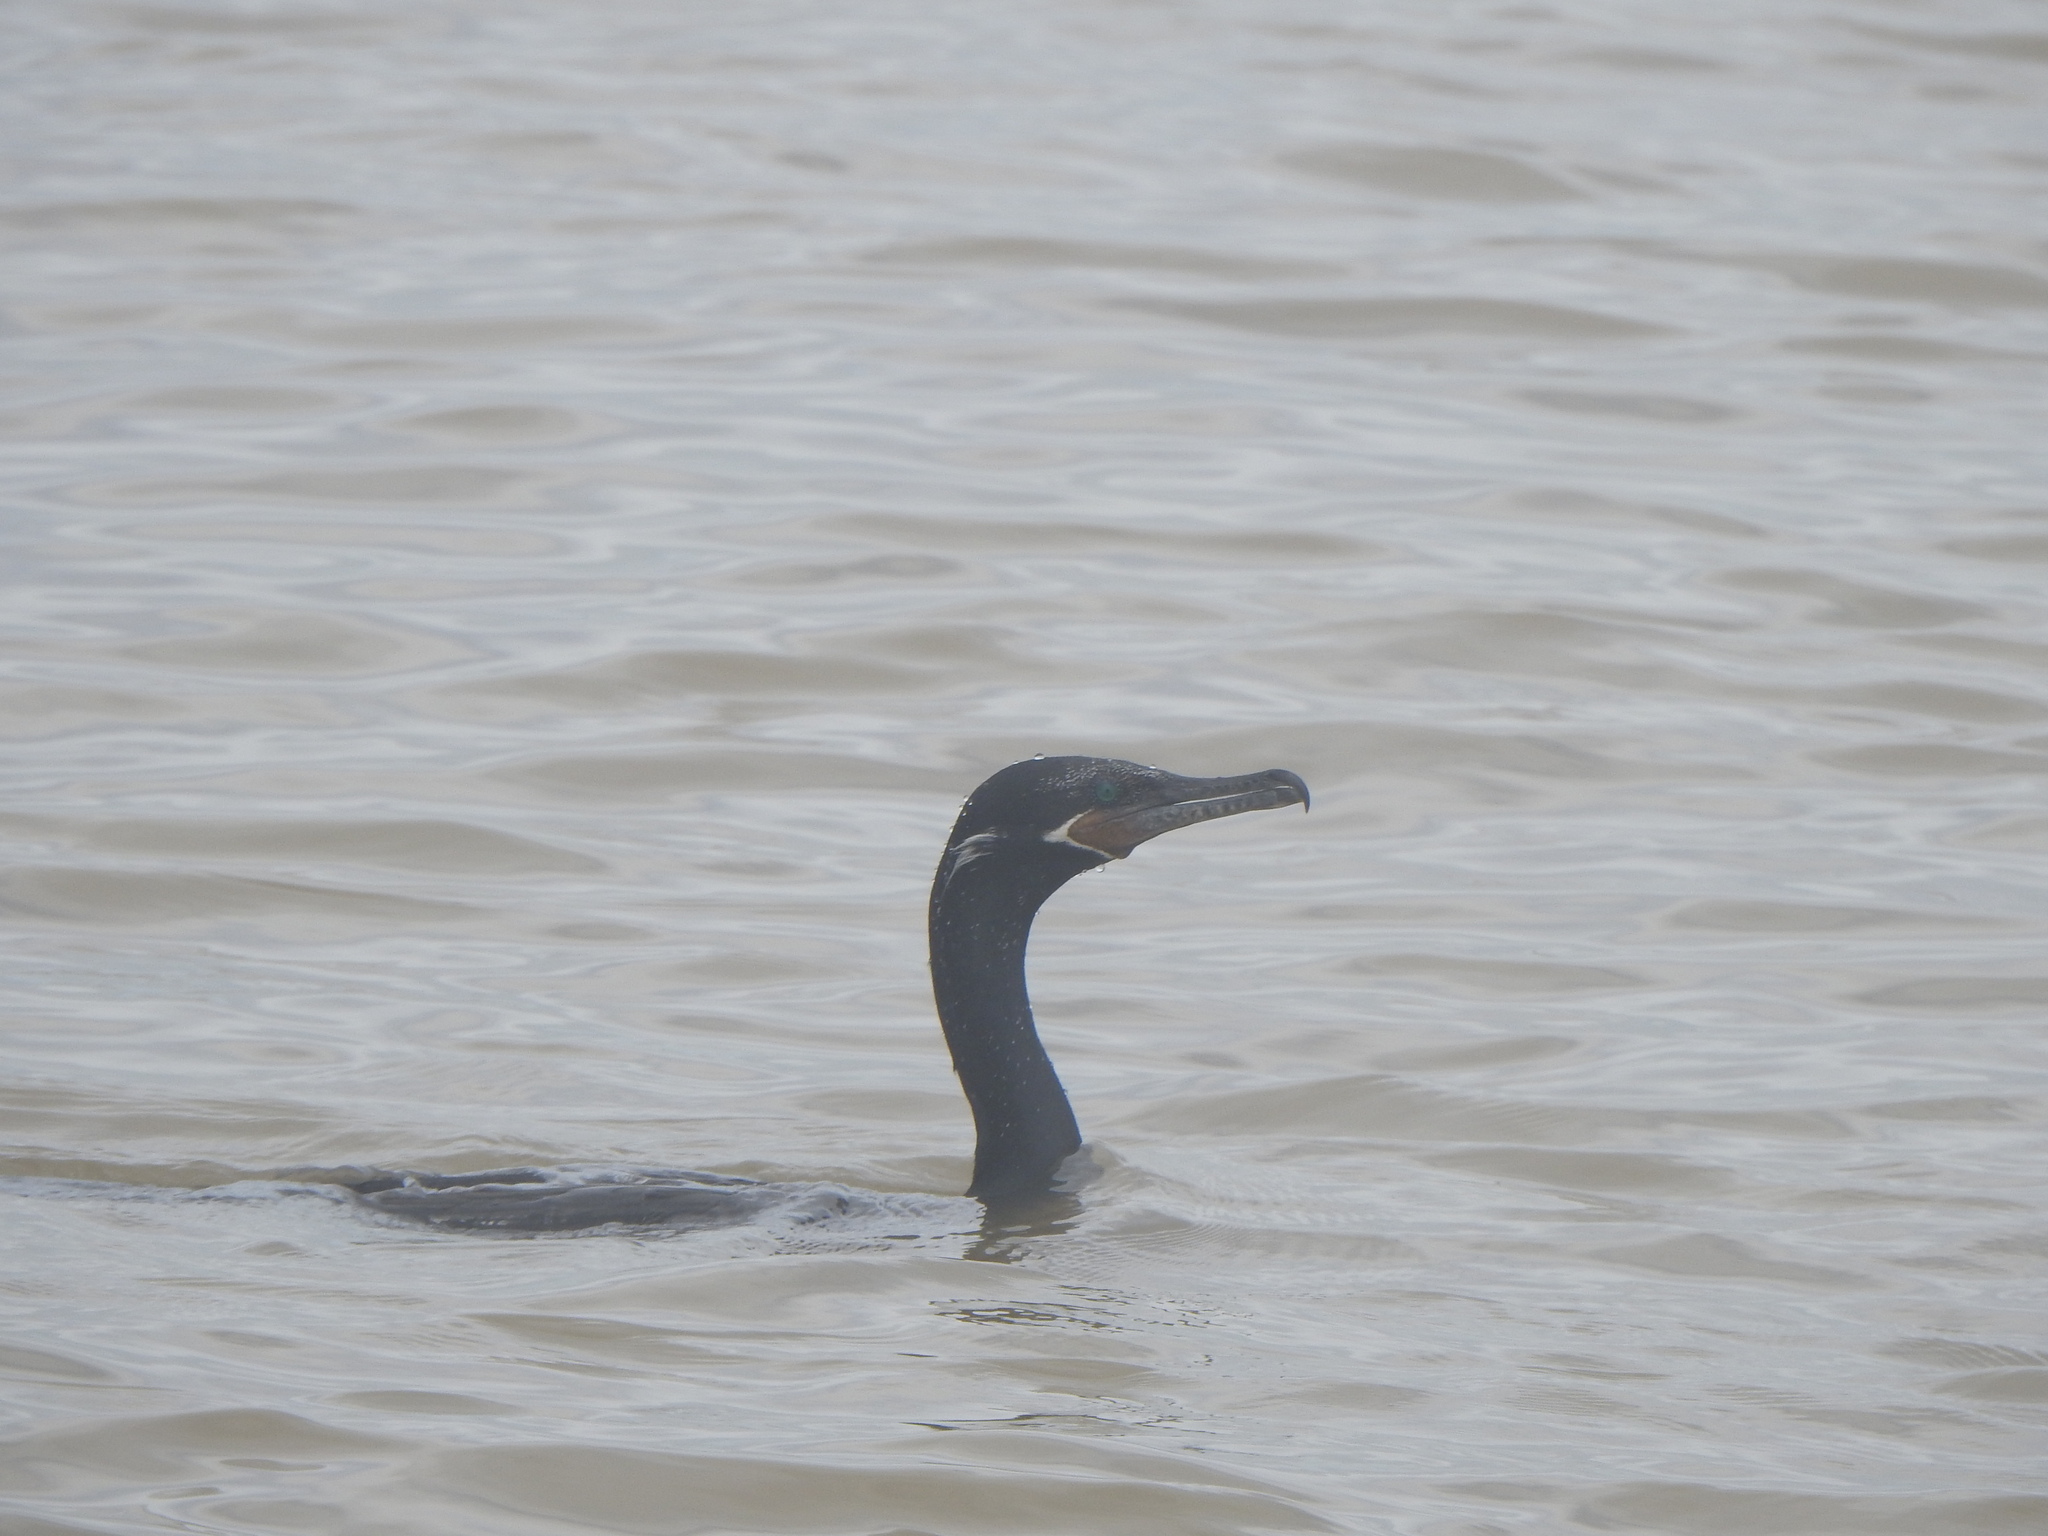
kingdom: Animalia
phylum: Chordata
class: Aves
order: Suliformes
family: Phalacrocoracidae
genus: Phalacrocorax
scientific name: Phalacrocorax brasilianus
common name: Neotropic cormorant
